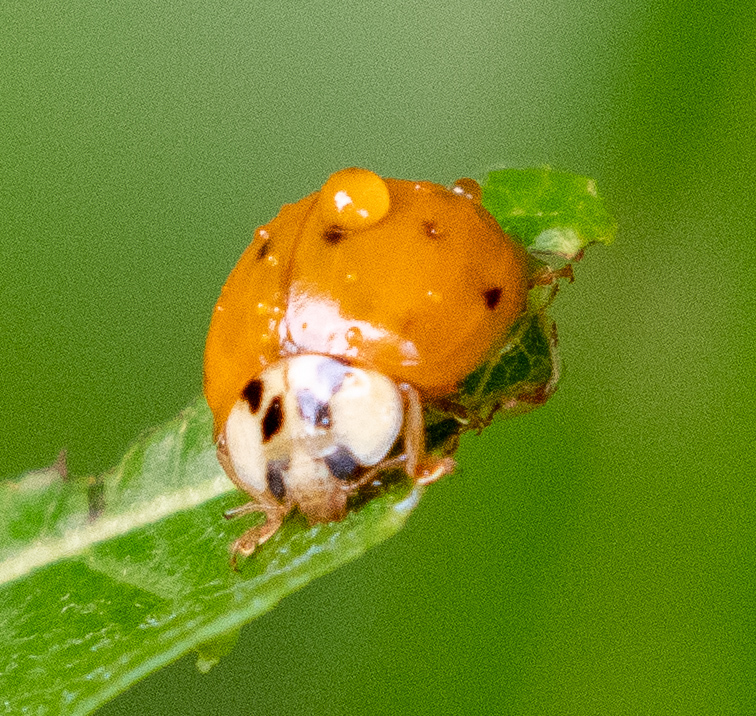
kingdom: Animalia
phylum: Arthropoda
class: Insecta
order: Coleoptera
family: Coccinellidae
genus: Harmonia
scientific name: Harmonia axyridis
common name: Harlequin ladybird
